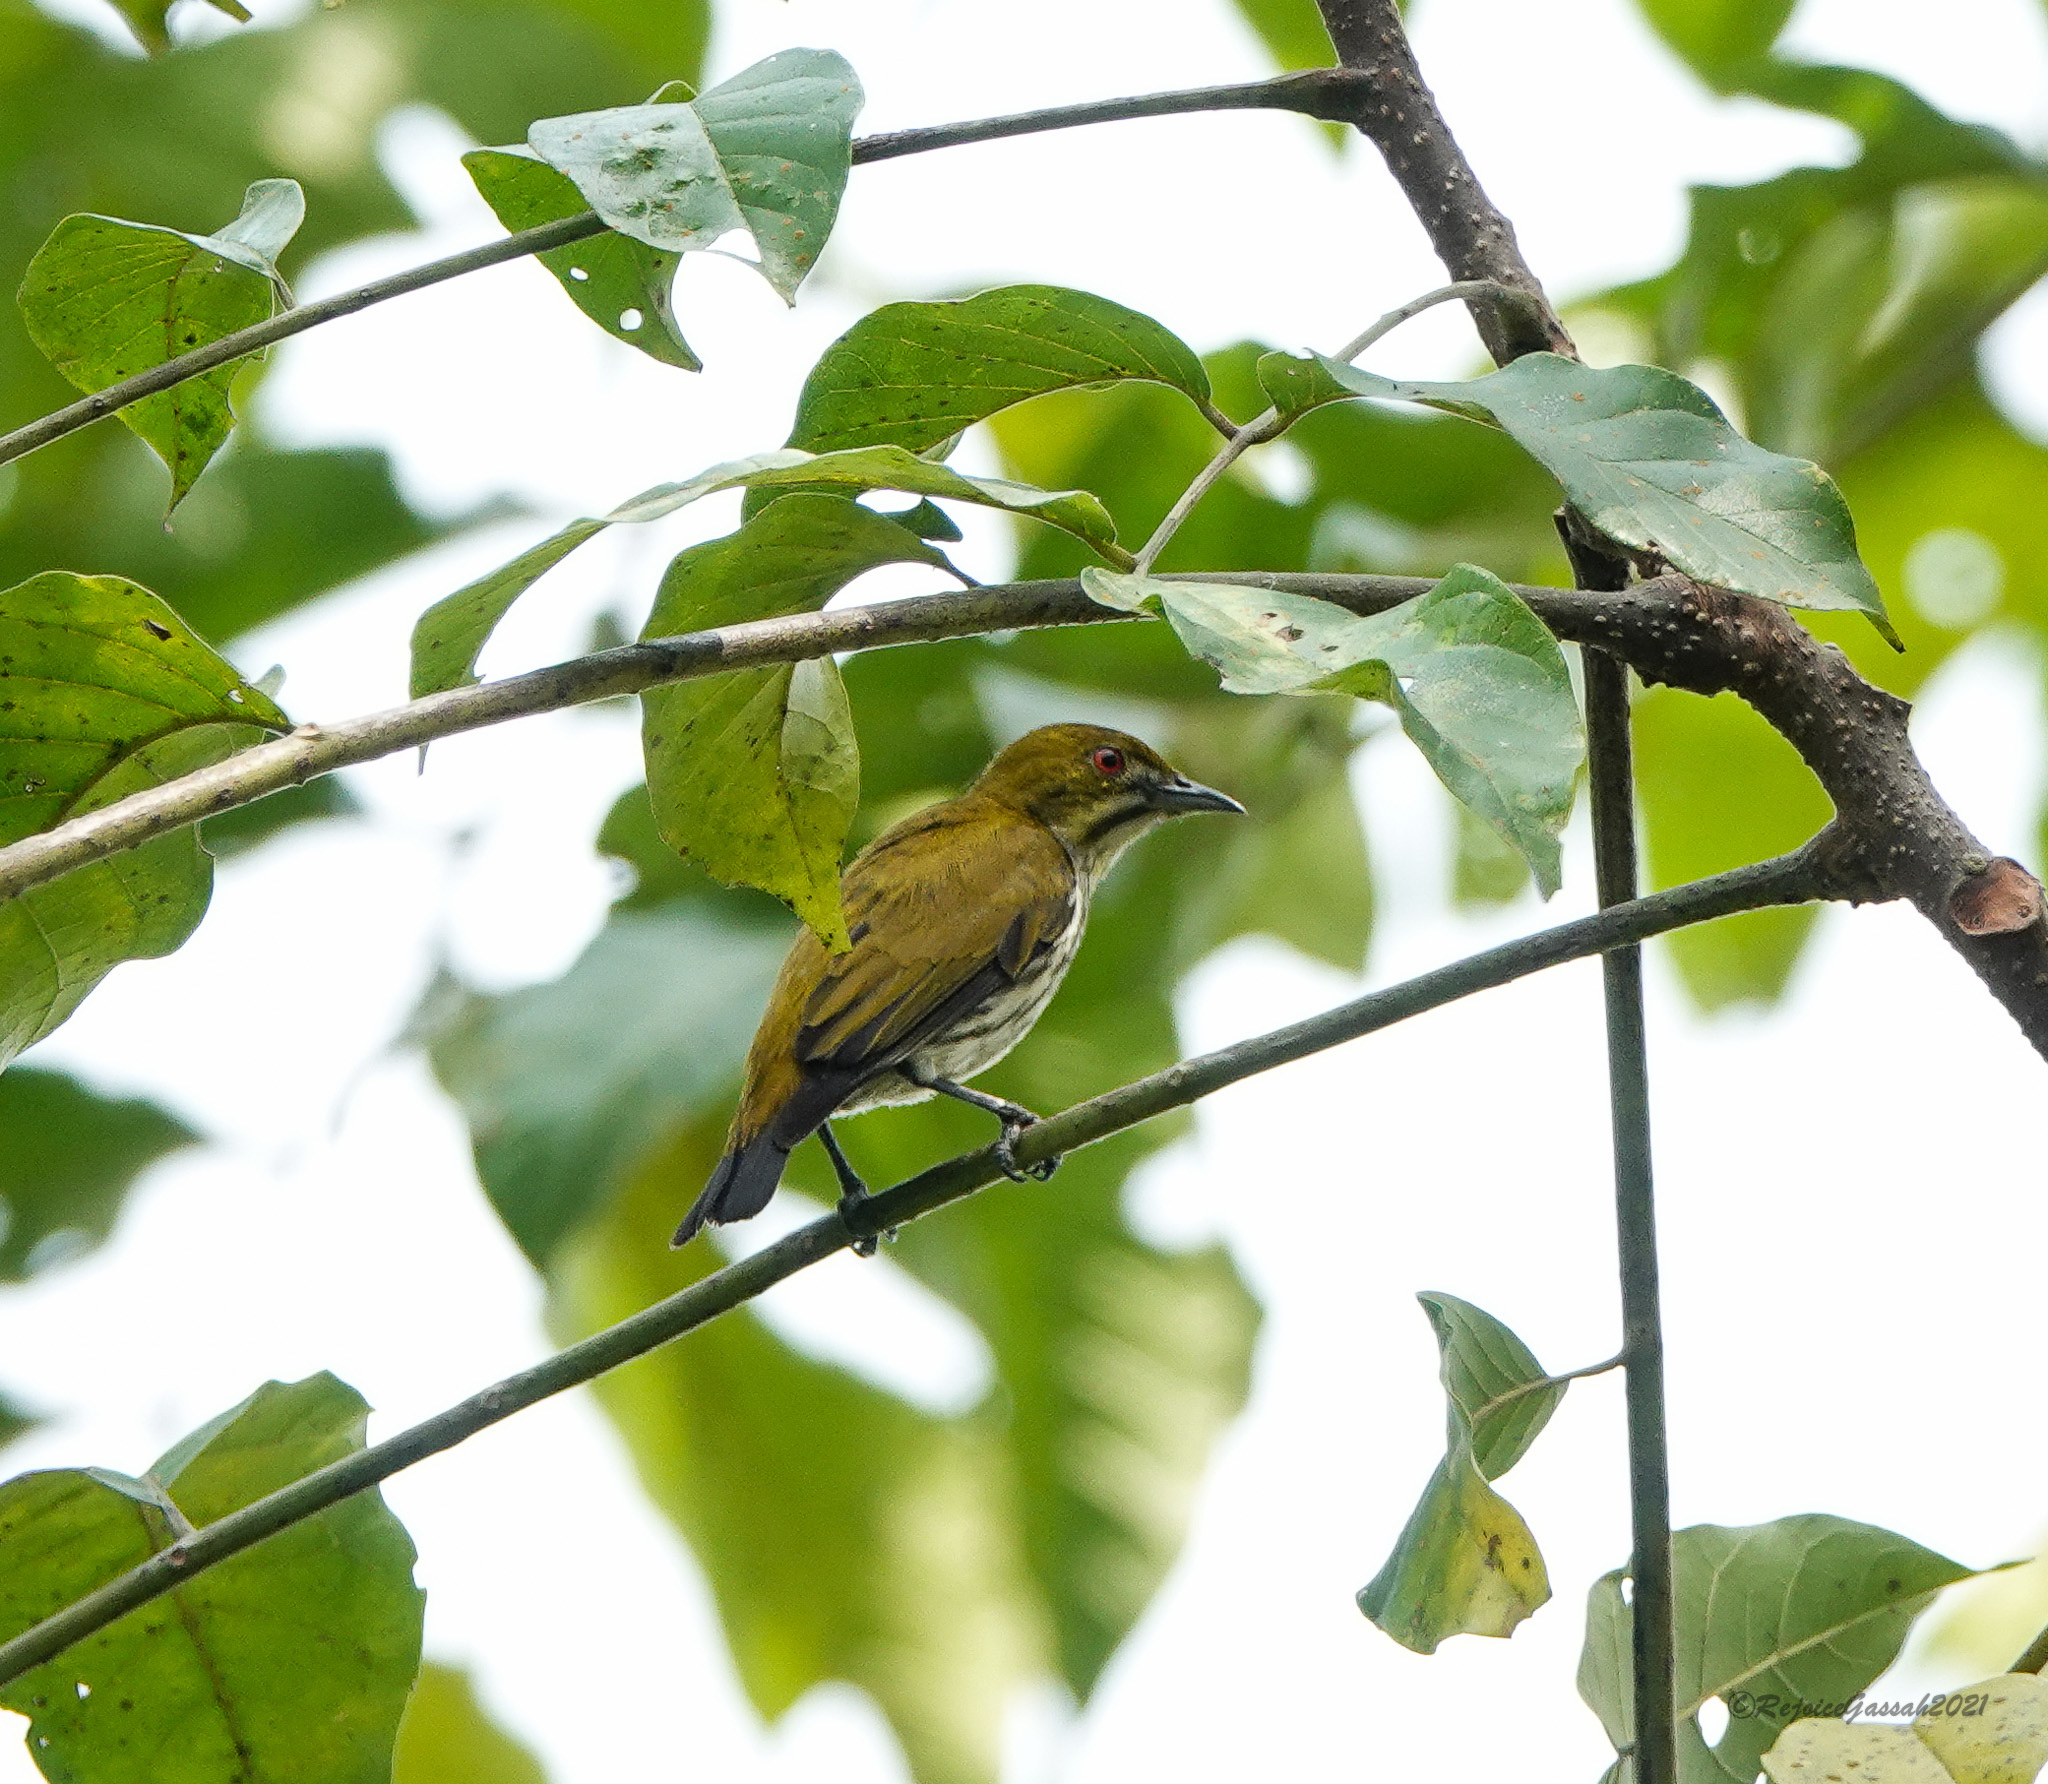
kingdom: Animalia
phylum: Chordata
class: Aves
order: Passeriformes
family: Dicaeidae
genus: Dicaeum
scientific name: Dicaeum chrysorrheum
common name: Yellow-vented flowerpecker
